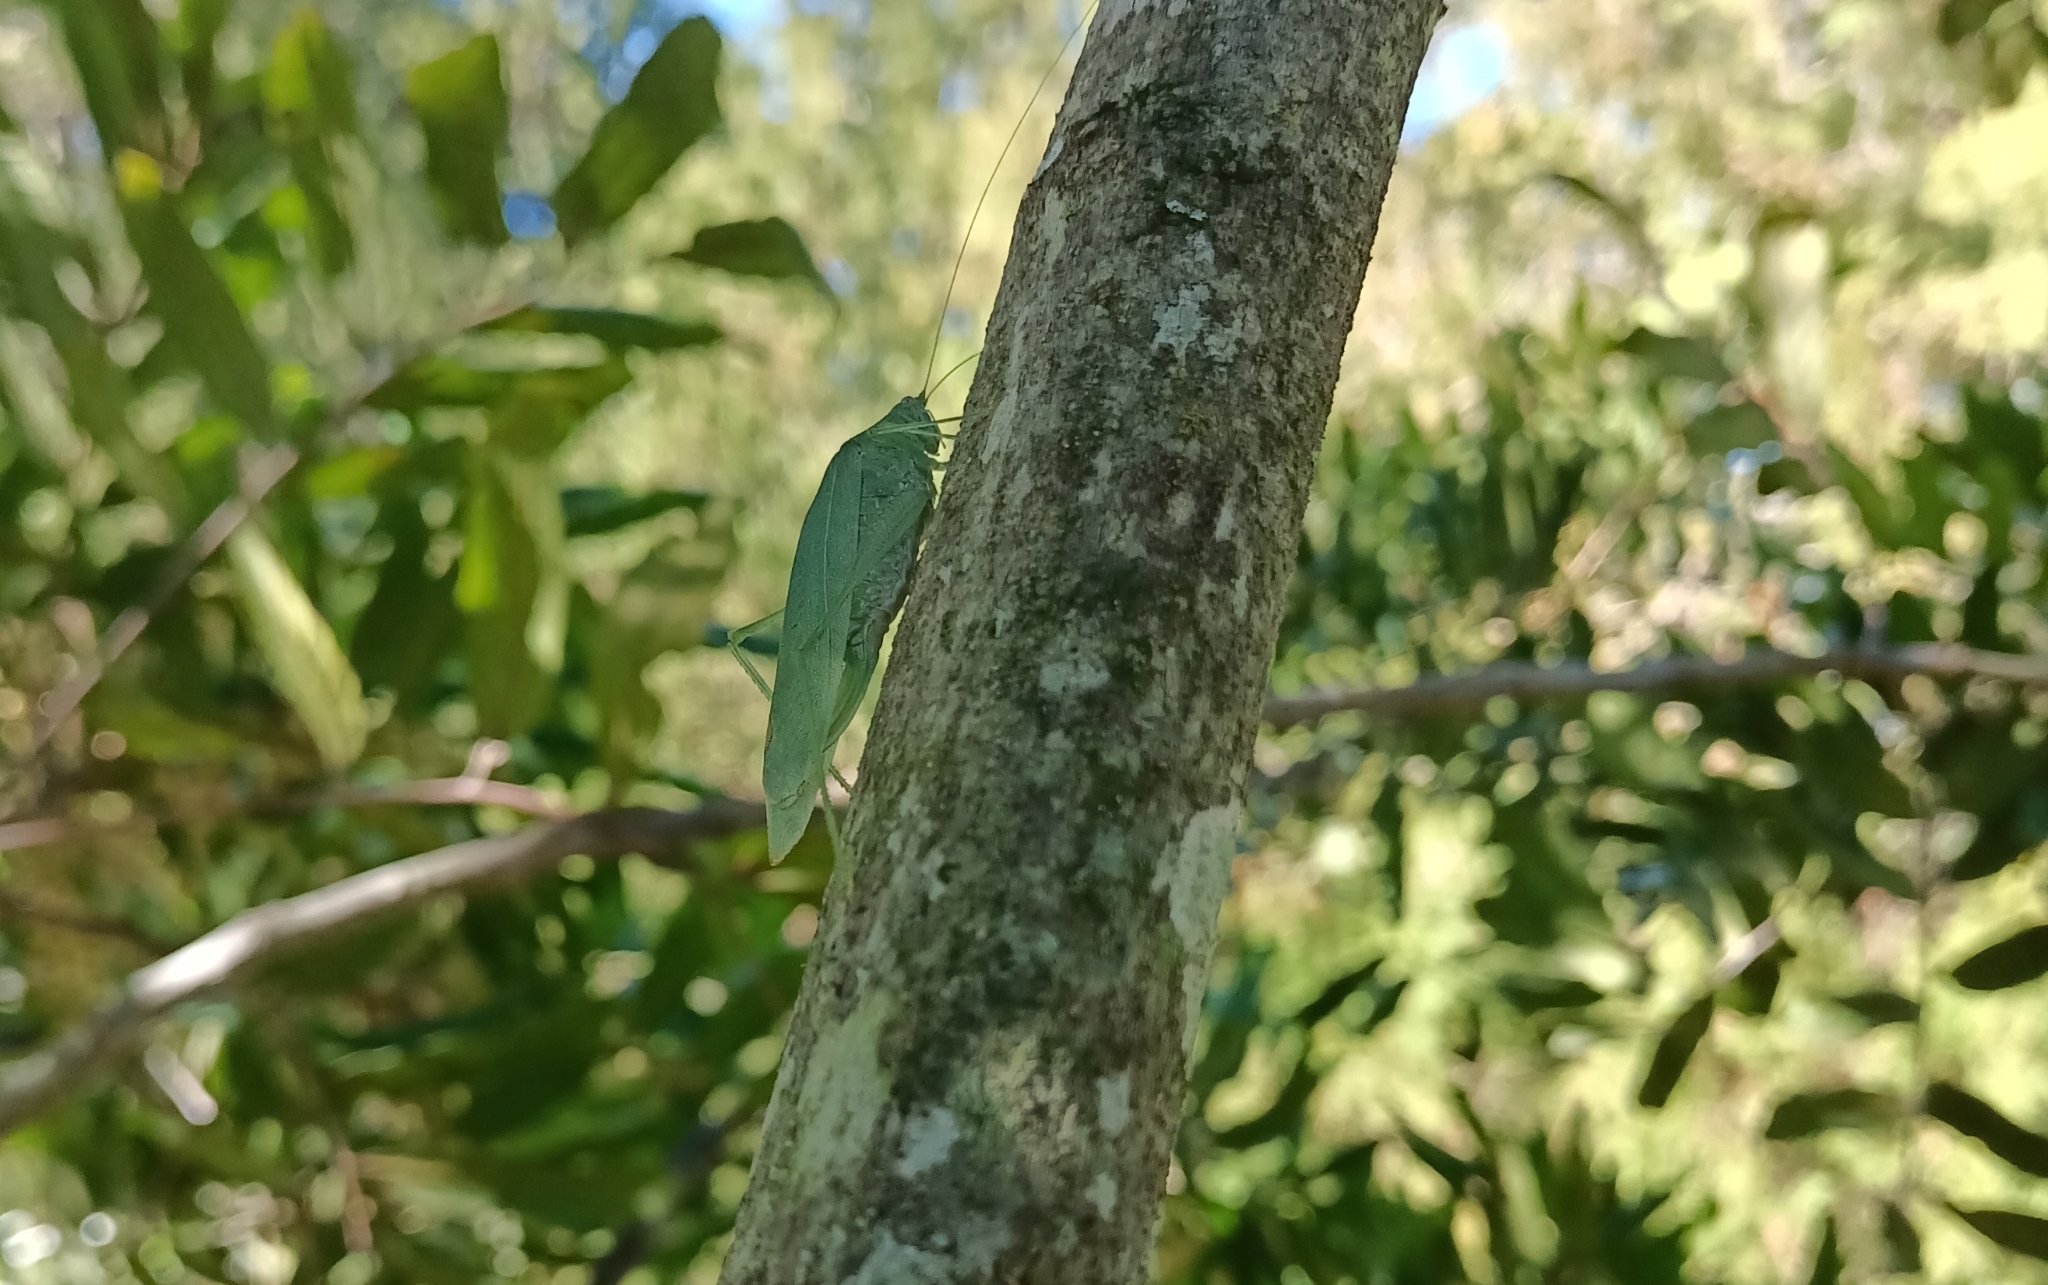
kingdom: Animalia
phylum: Arthropoda
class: Insecta
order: Orthoptera
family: Tettigoniidae
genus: Grammadera
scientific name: Grammadera clara
